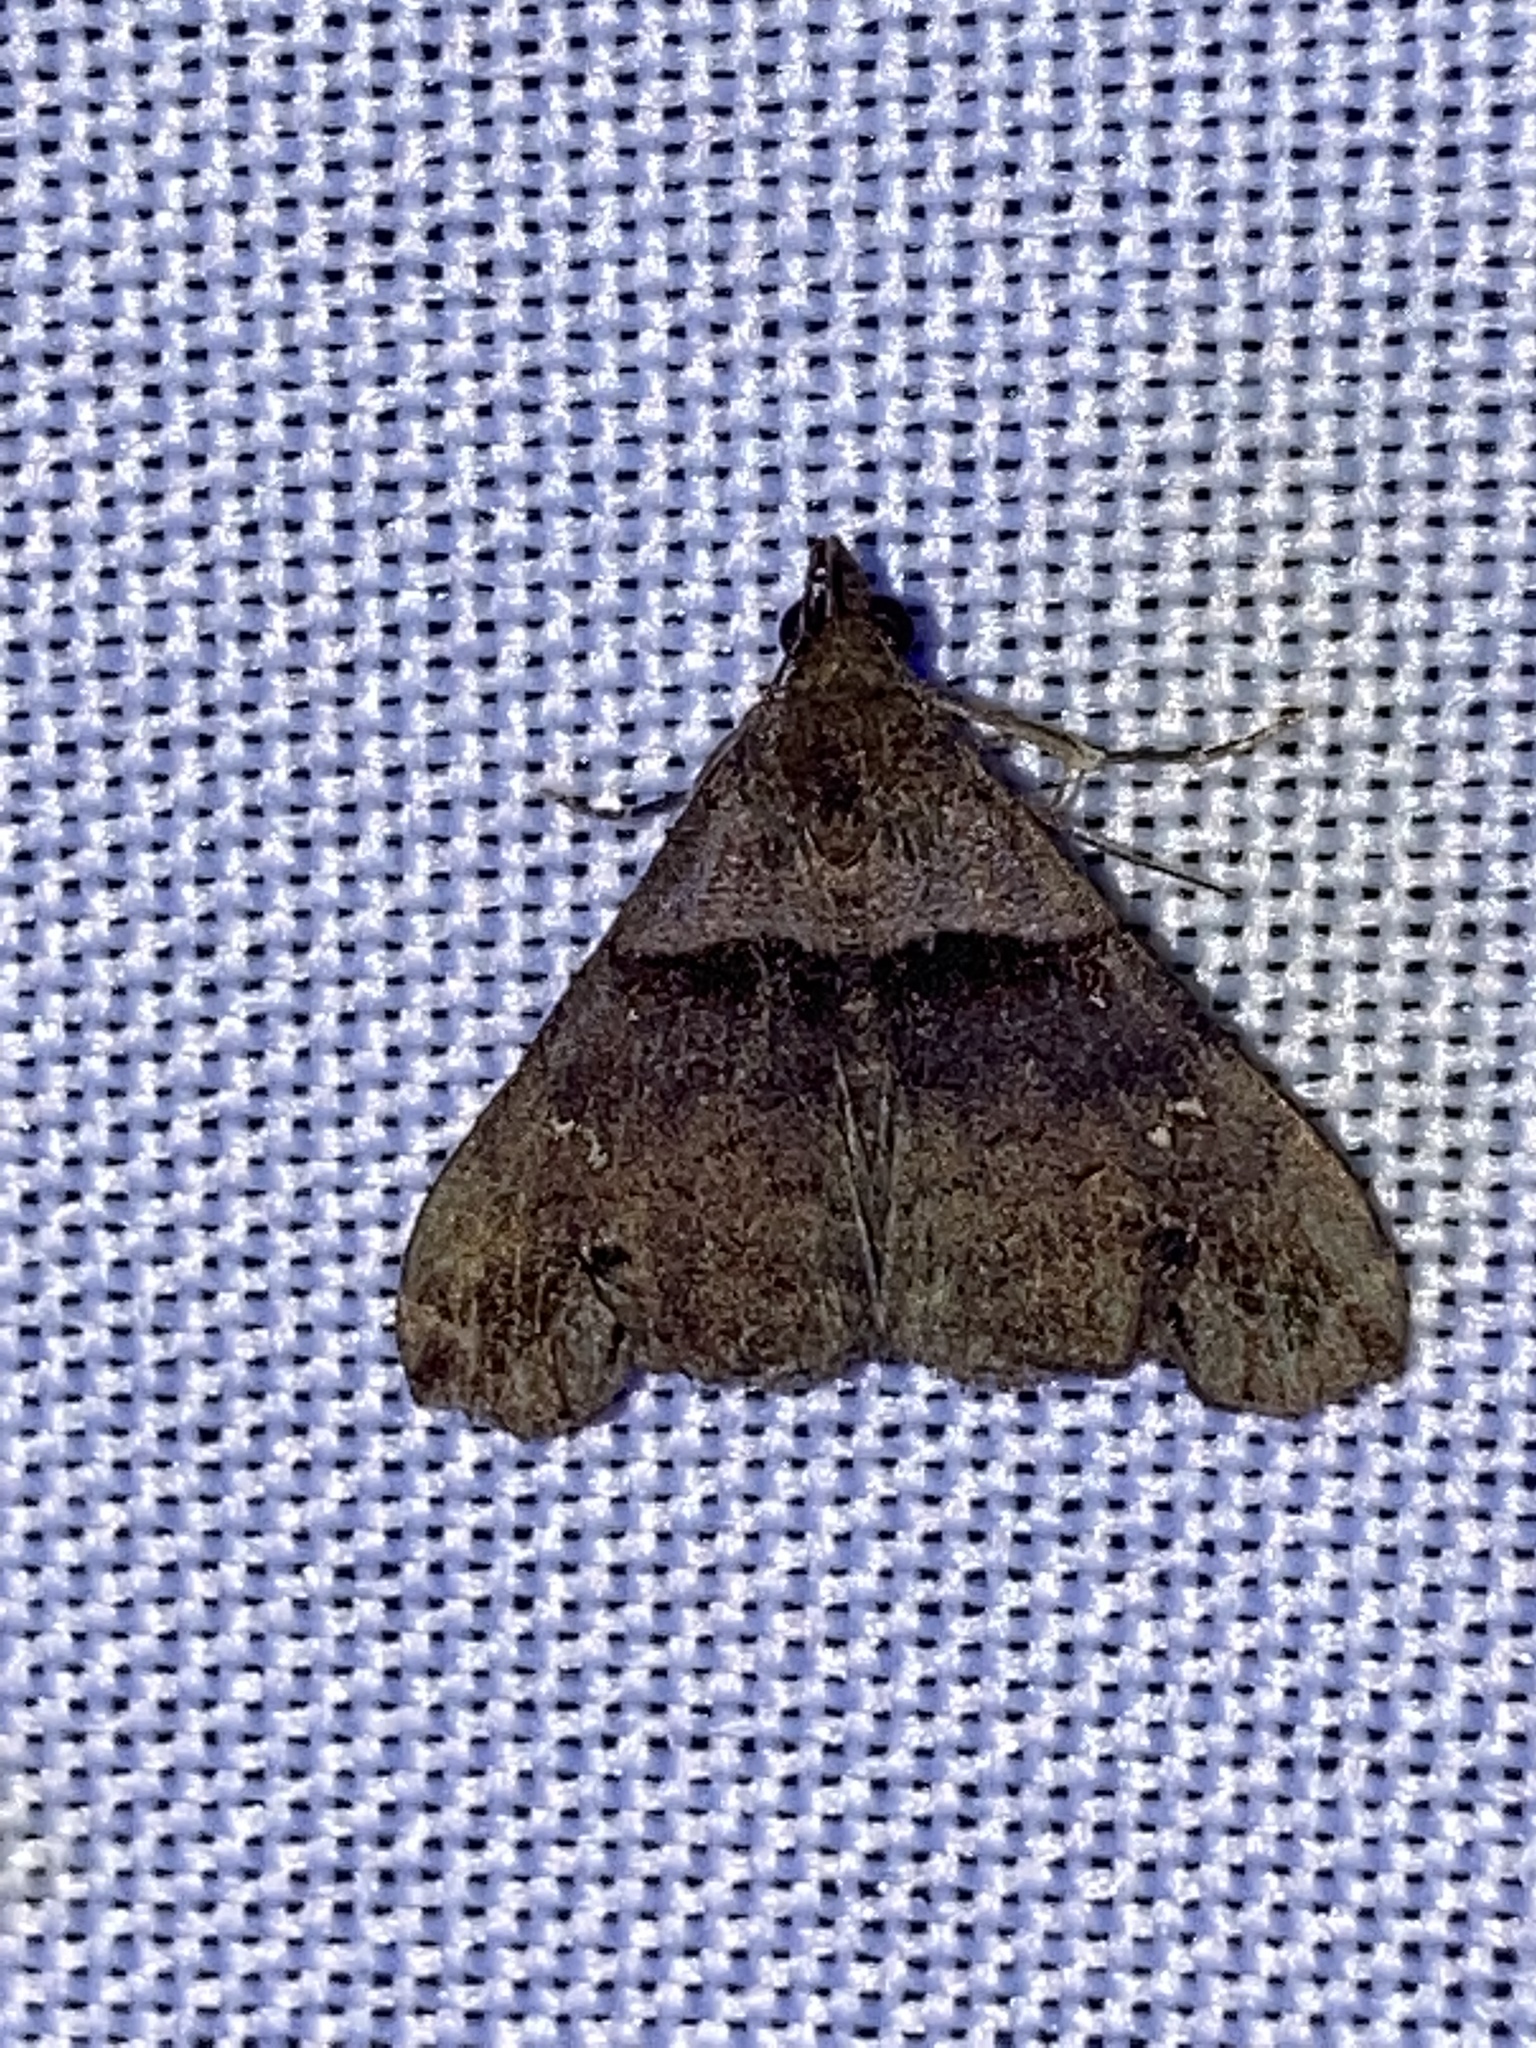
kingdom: Animalia
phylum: Arthropoda
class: Insecta
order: Lepidoptera
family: Erebidae
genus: Lascoria
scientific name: Lascoria ambigualis
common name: Ambiguous moth
